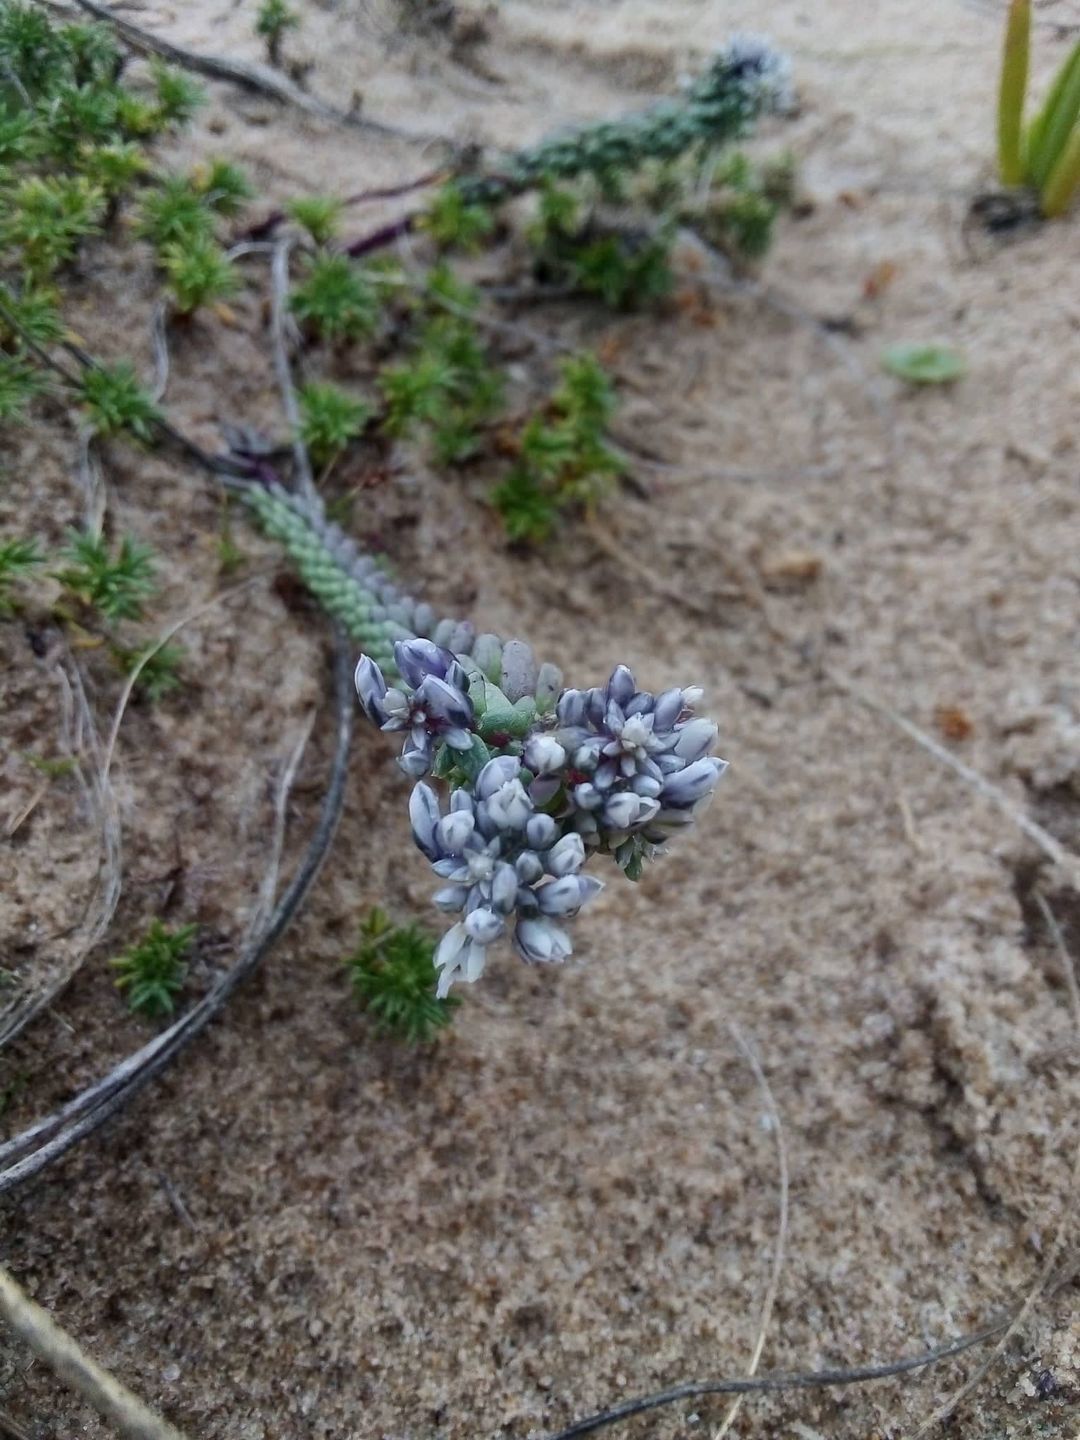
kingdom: Plantae
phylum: Tracheophyta
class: Magnoliopsida
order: Fabales
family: Polygalaceae
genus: Polygala
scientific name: Polygala cyparissias
